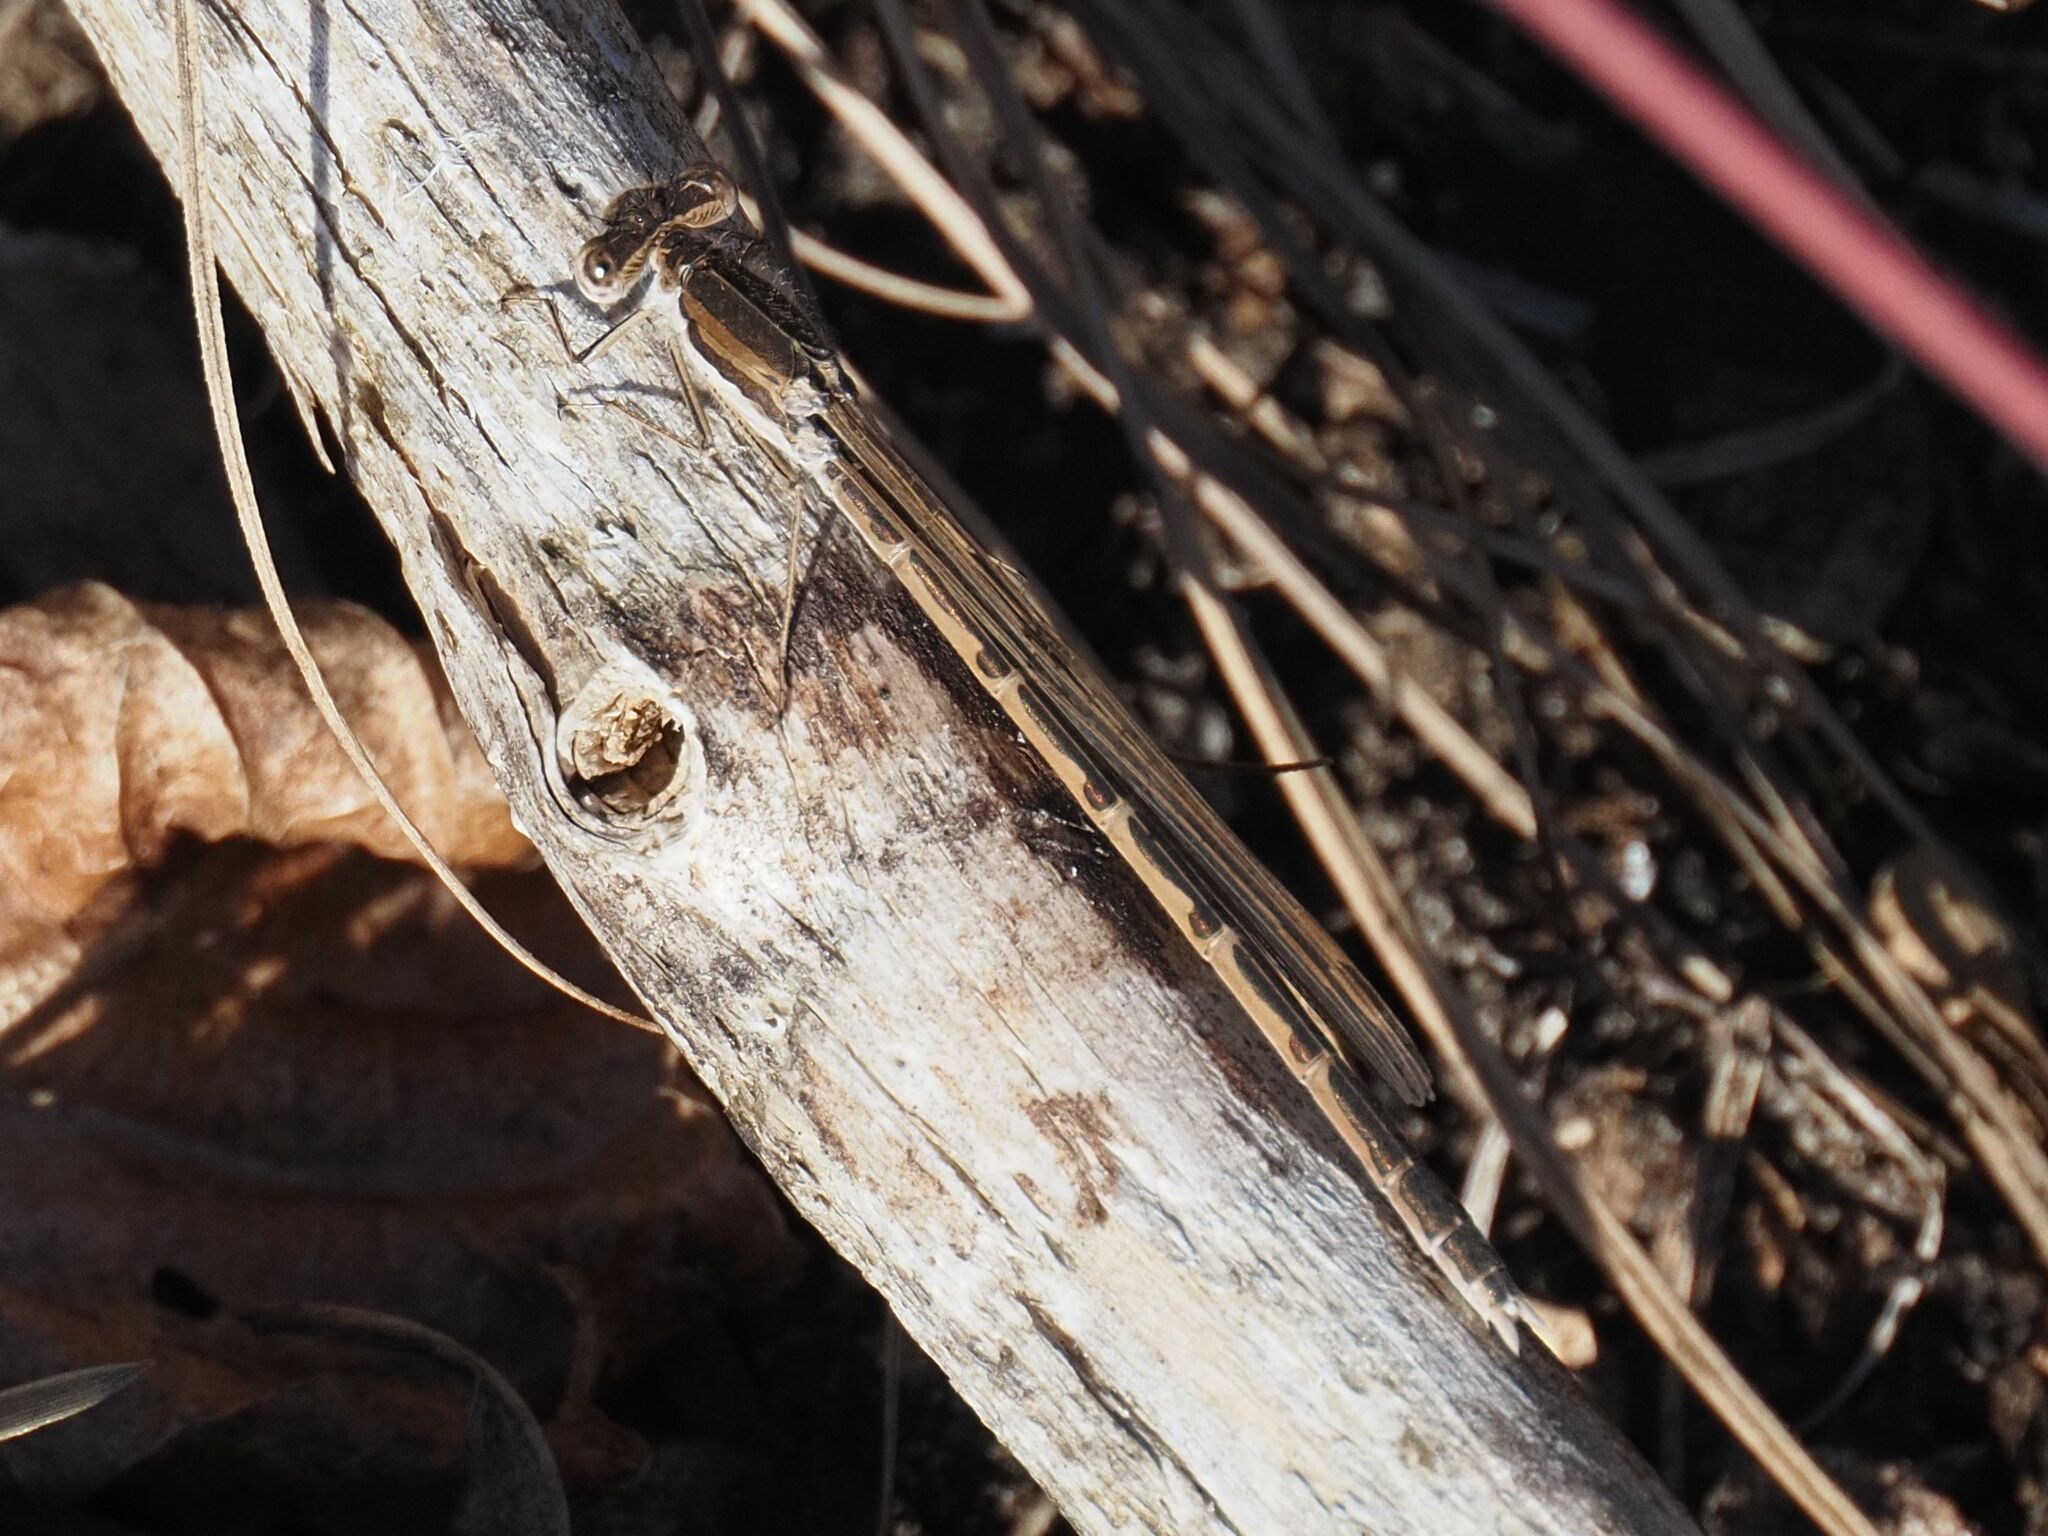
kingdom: Animalia
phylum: Arthropoda
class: Insecta
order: Odonata
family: Lestidae
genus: Sympecma
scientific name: Sympecma fusca
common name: Common winter damsel
